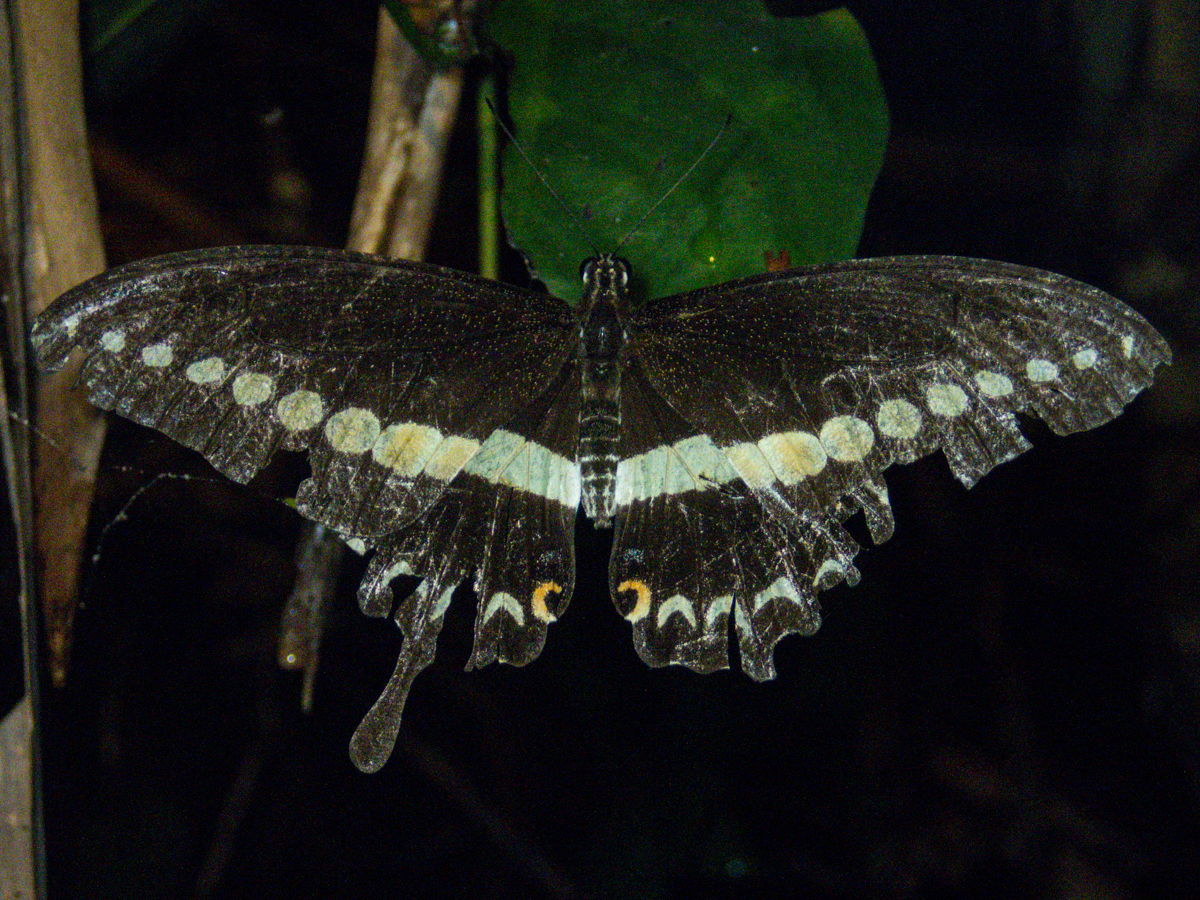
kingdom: Animalia
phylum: Arthropoda
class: Insecta
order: Lepidoptera
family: Papilionidae
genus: Papilio
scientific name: Papilio demolion
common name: Banded swallowtail
